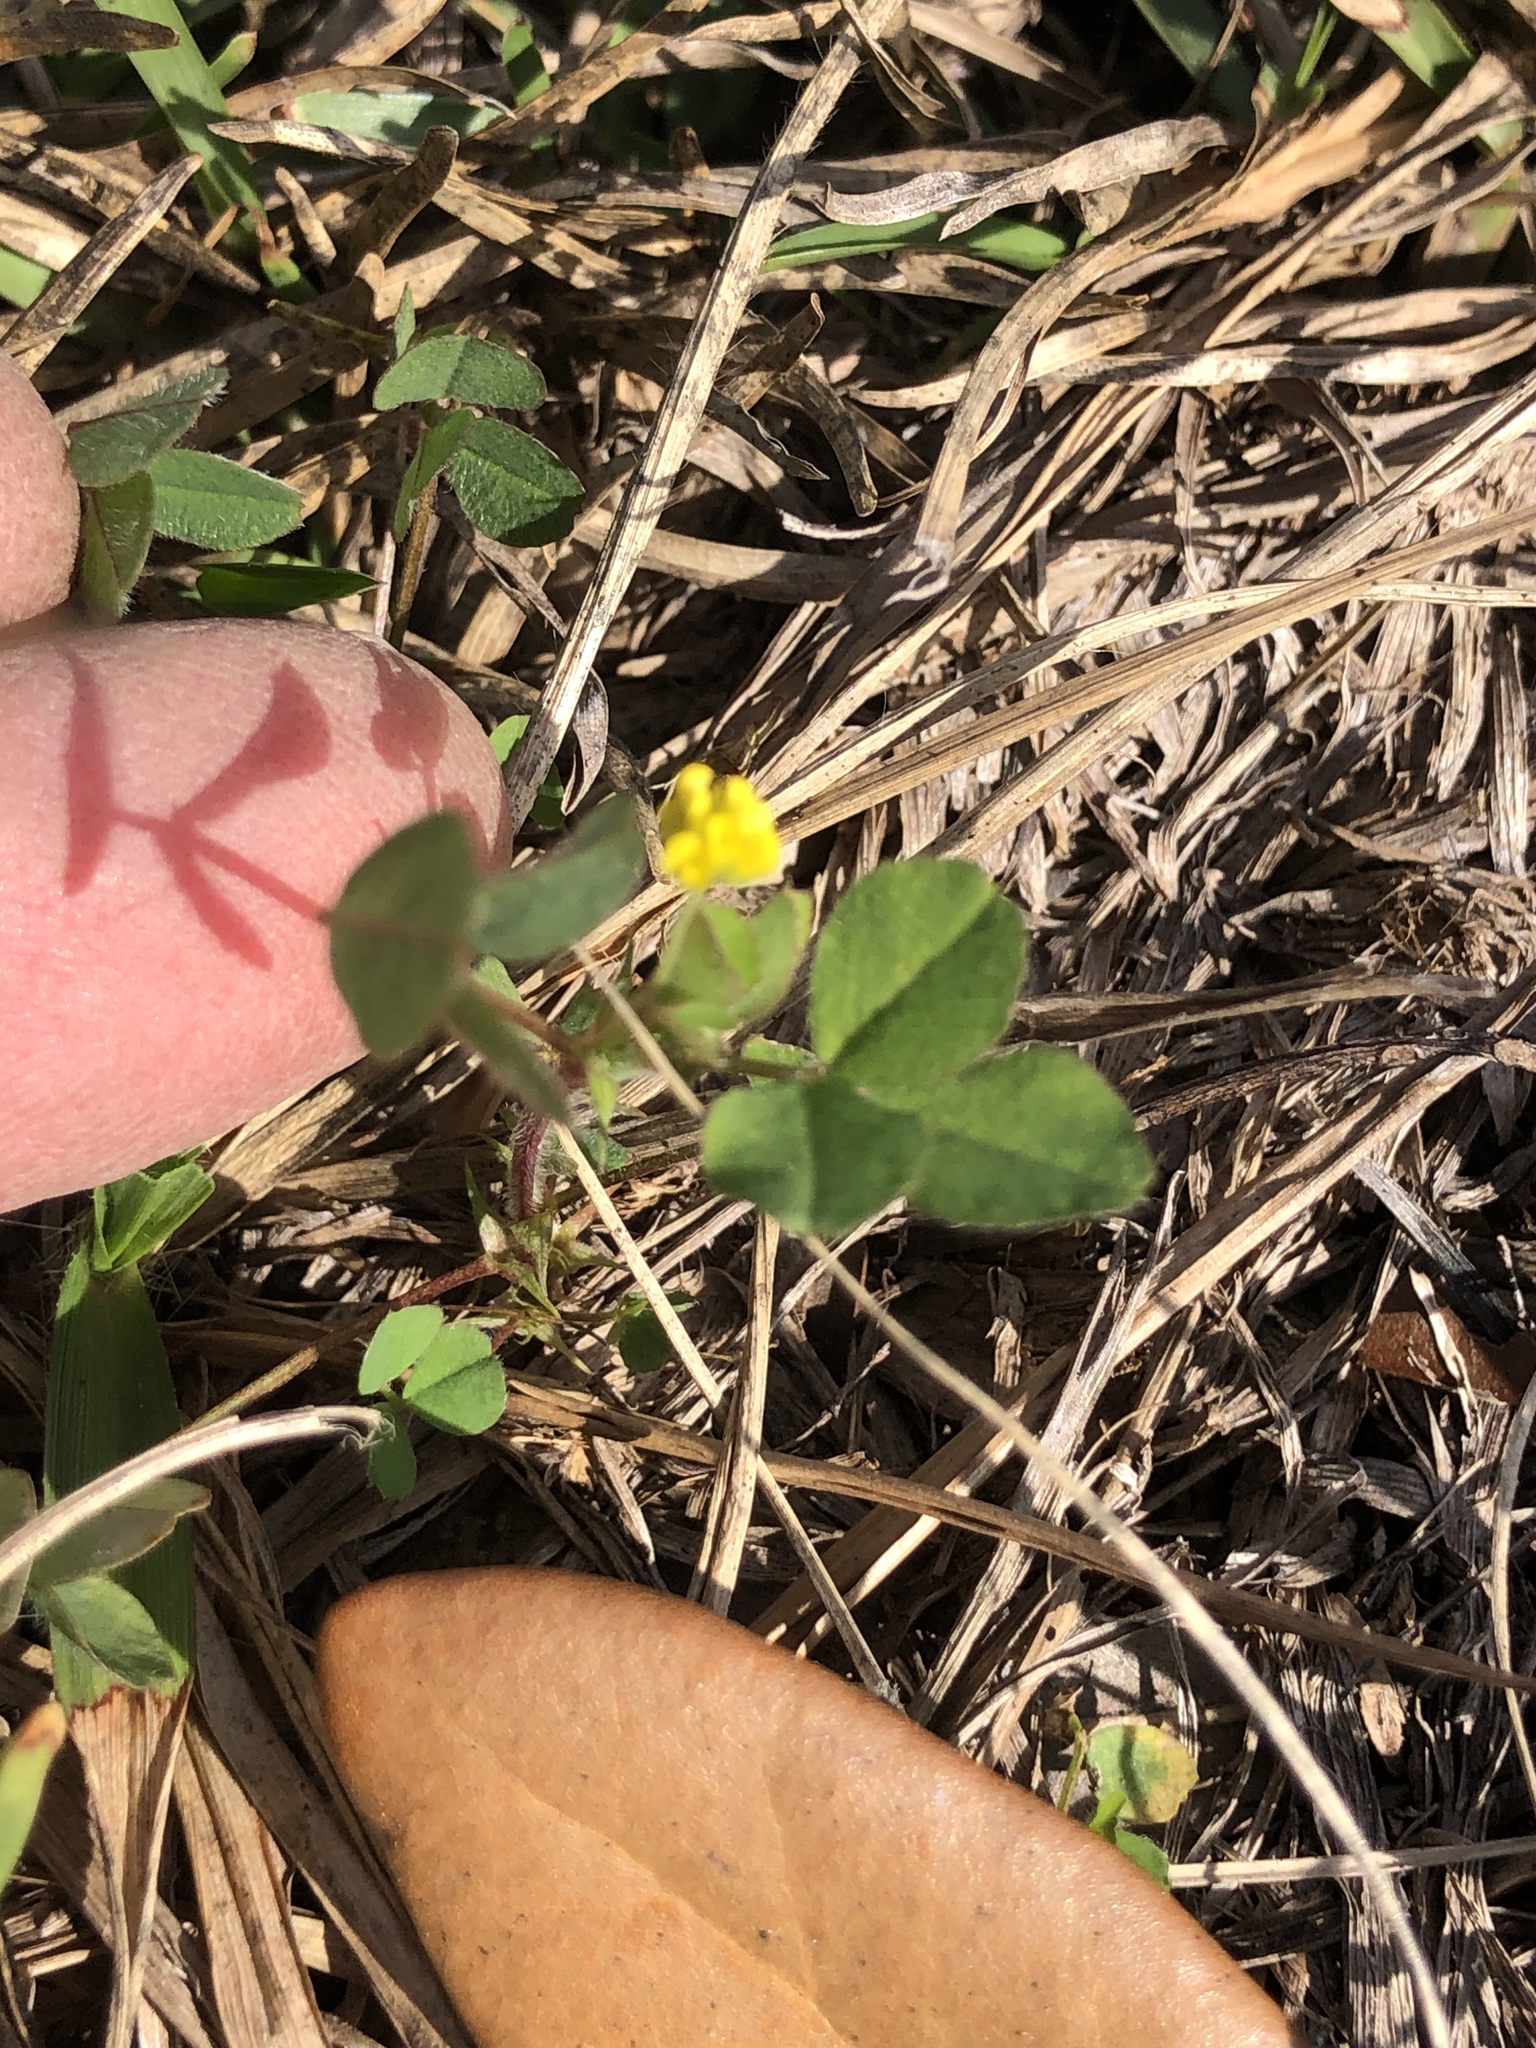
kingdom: Plantae
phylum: Tracheophyta
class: Magnoliopsida
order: Fabales
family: Fabaceae
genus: Medicago
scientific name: Medicago lupulina
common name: Black medick
